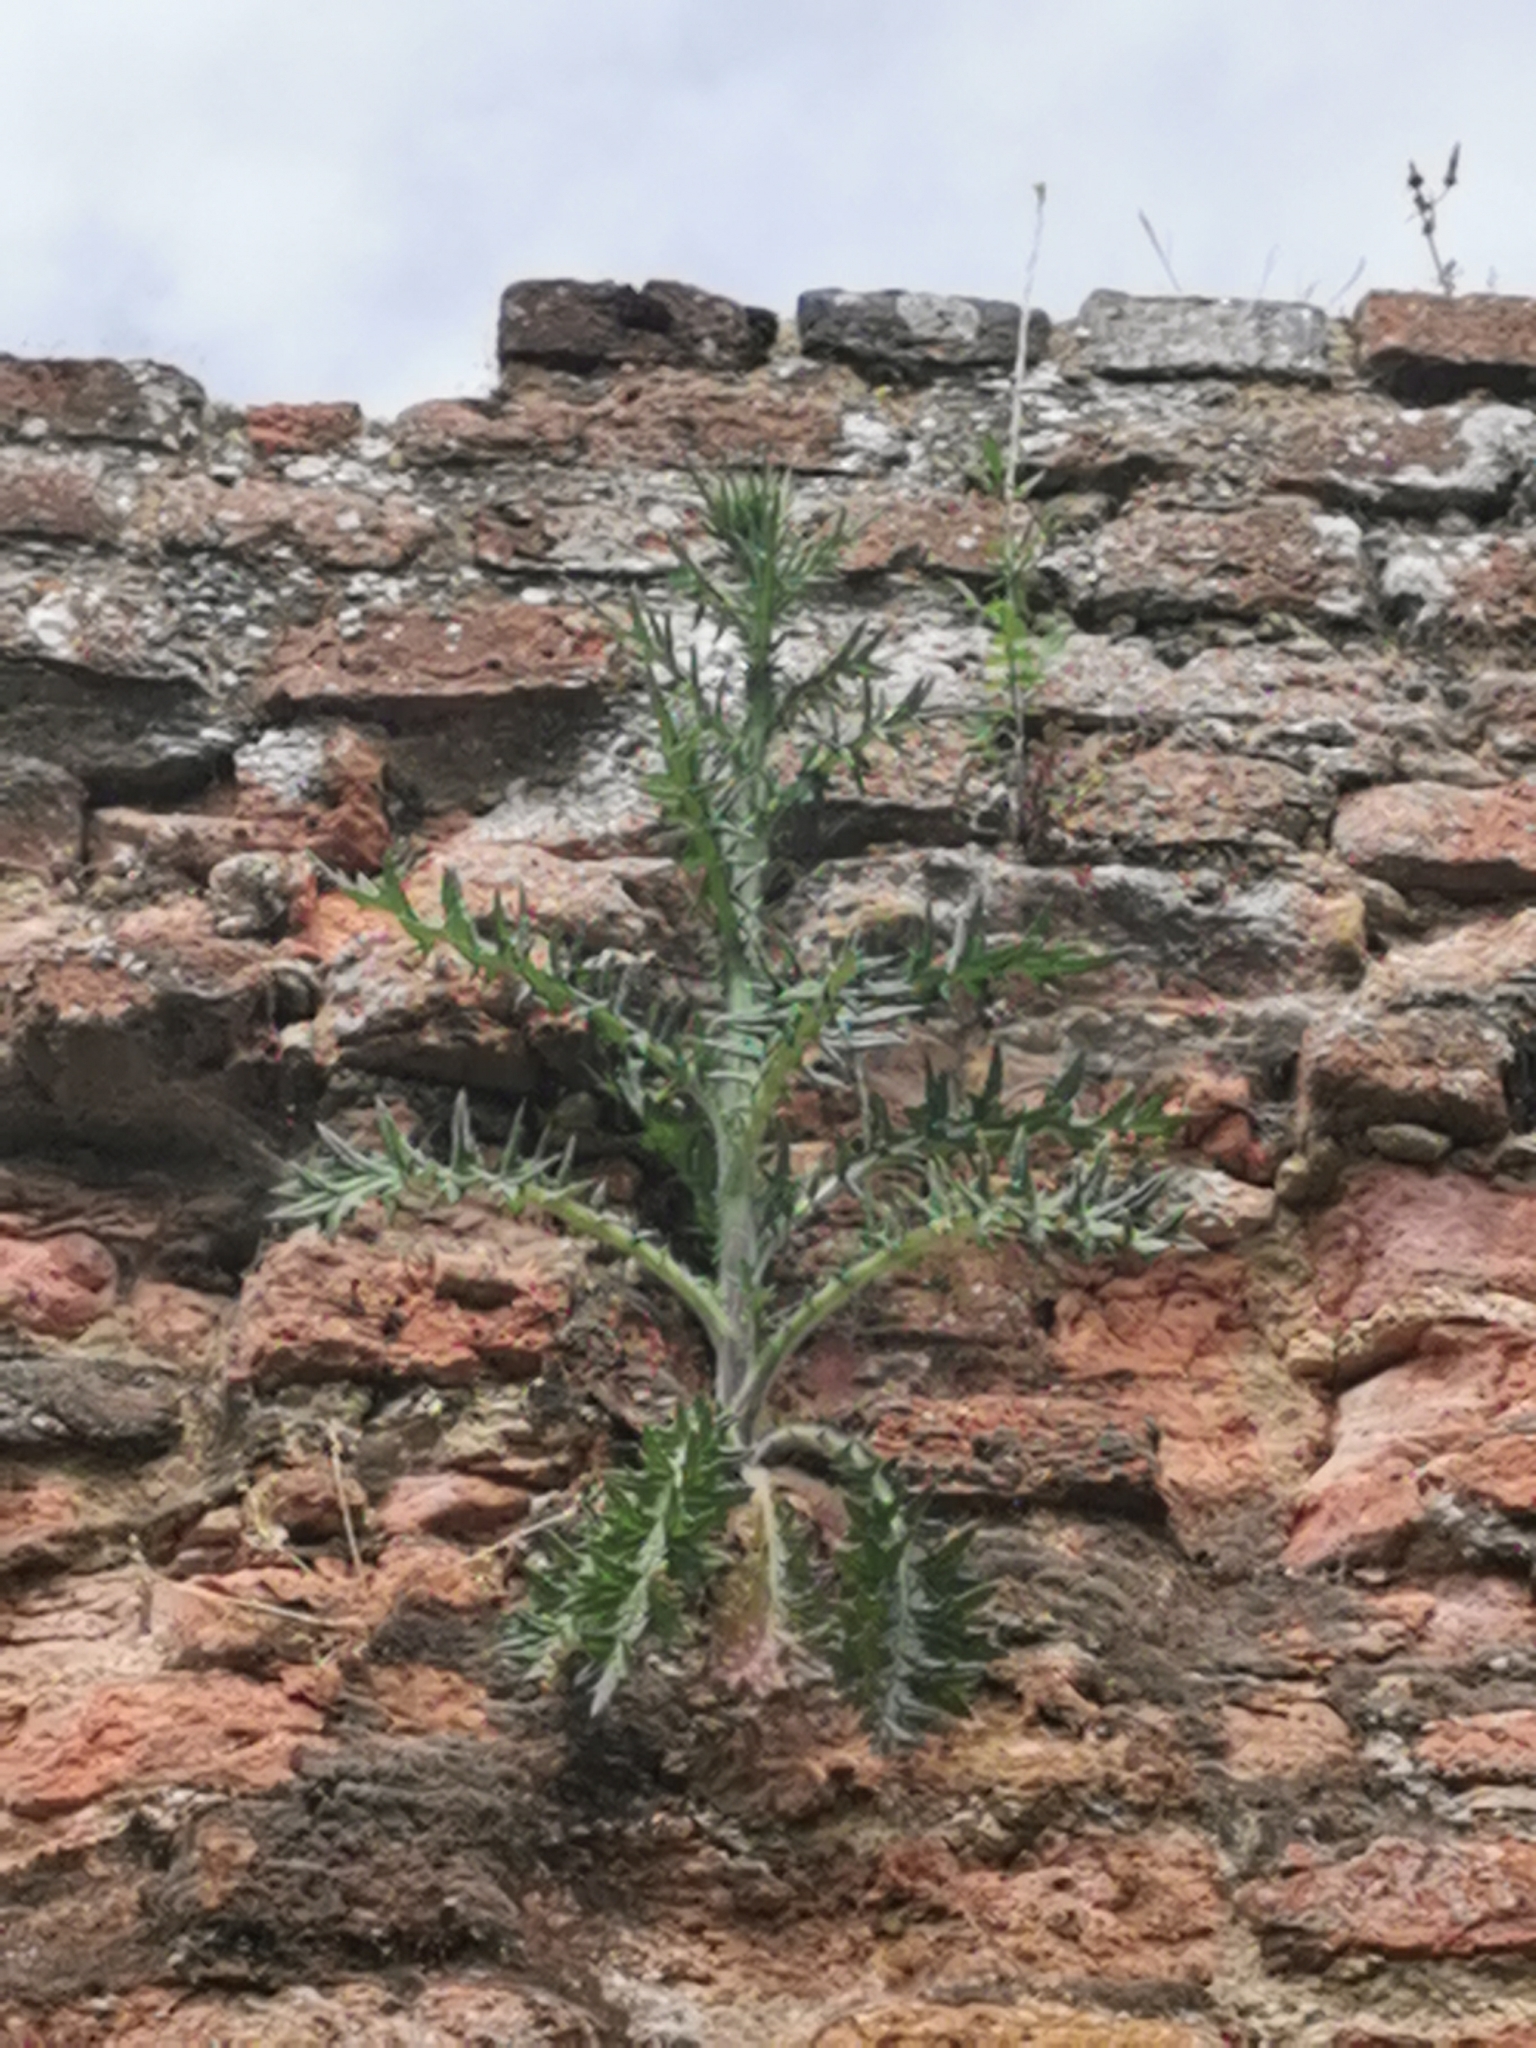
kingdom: Plantae
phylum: Tracheophyta
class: Magnoliopsida
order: Asterales
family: Asteraceae
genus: Cirsium
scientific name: Cirsium vulgare
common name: Bull thistle
